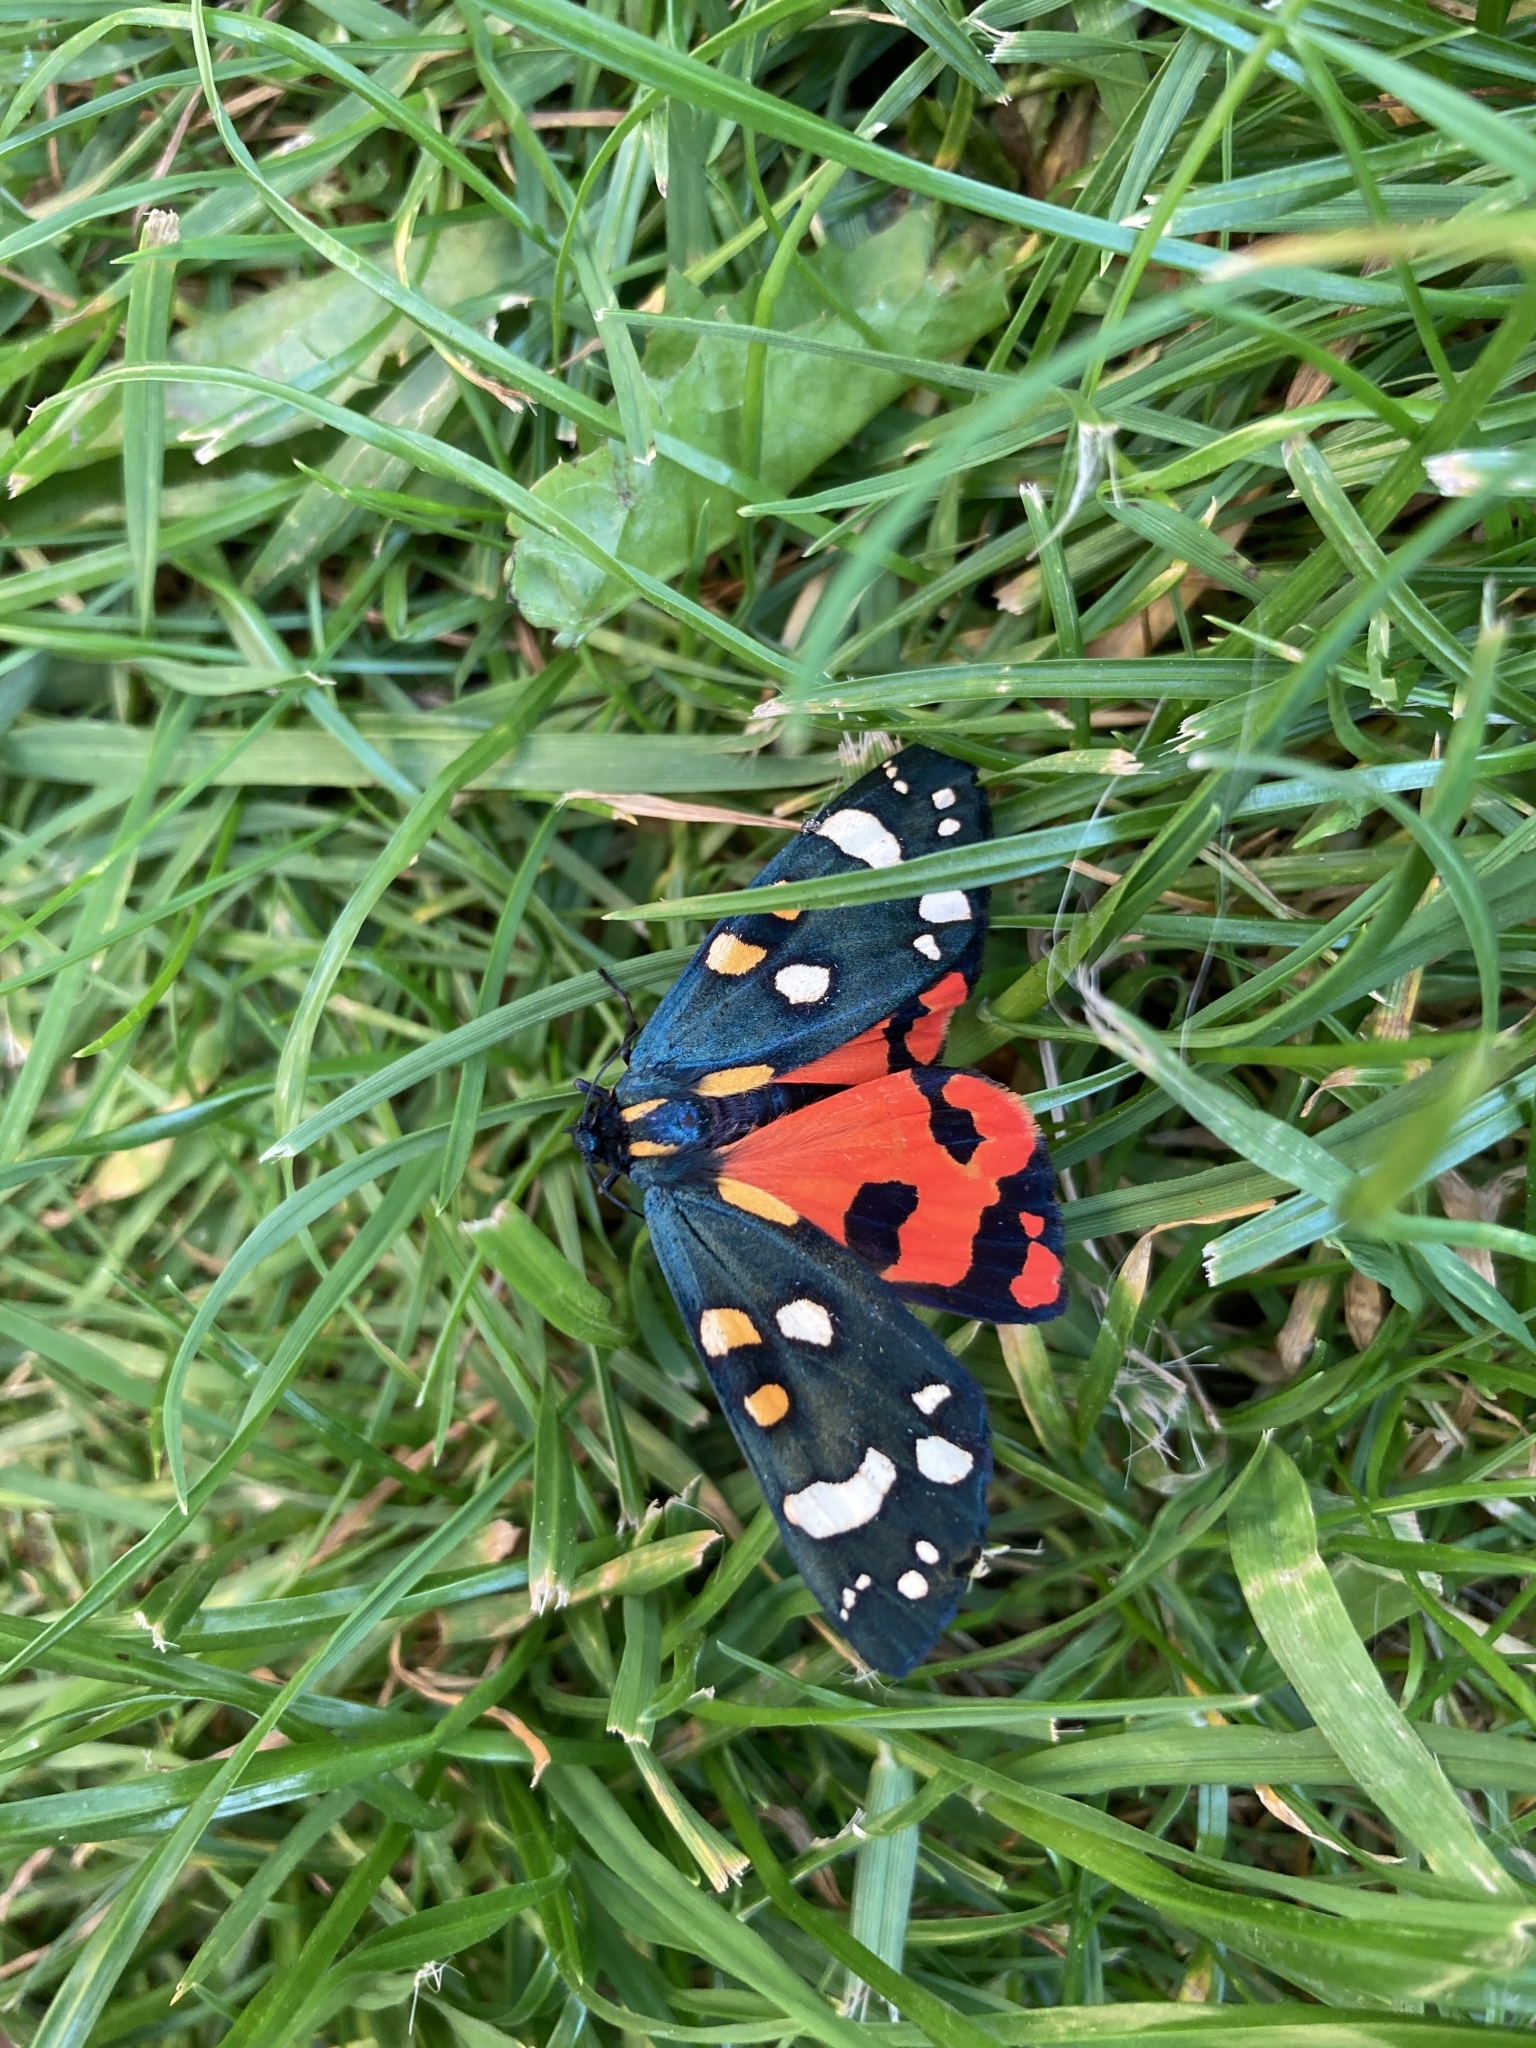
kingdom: Animalia
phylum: Arthropoda
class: Insecta
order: Lepidoptera
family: Erebidae
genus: Callimorpha
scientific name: Callimorpha dominula
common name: Scarlet tiger
